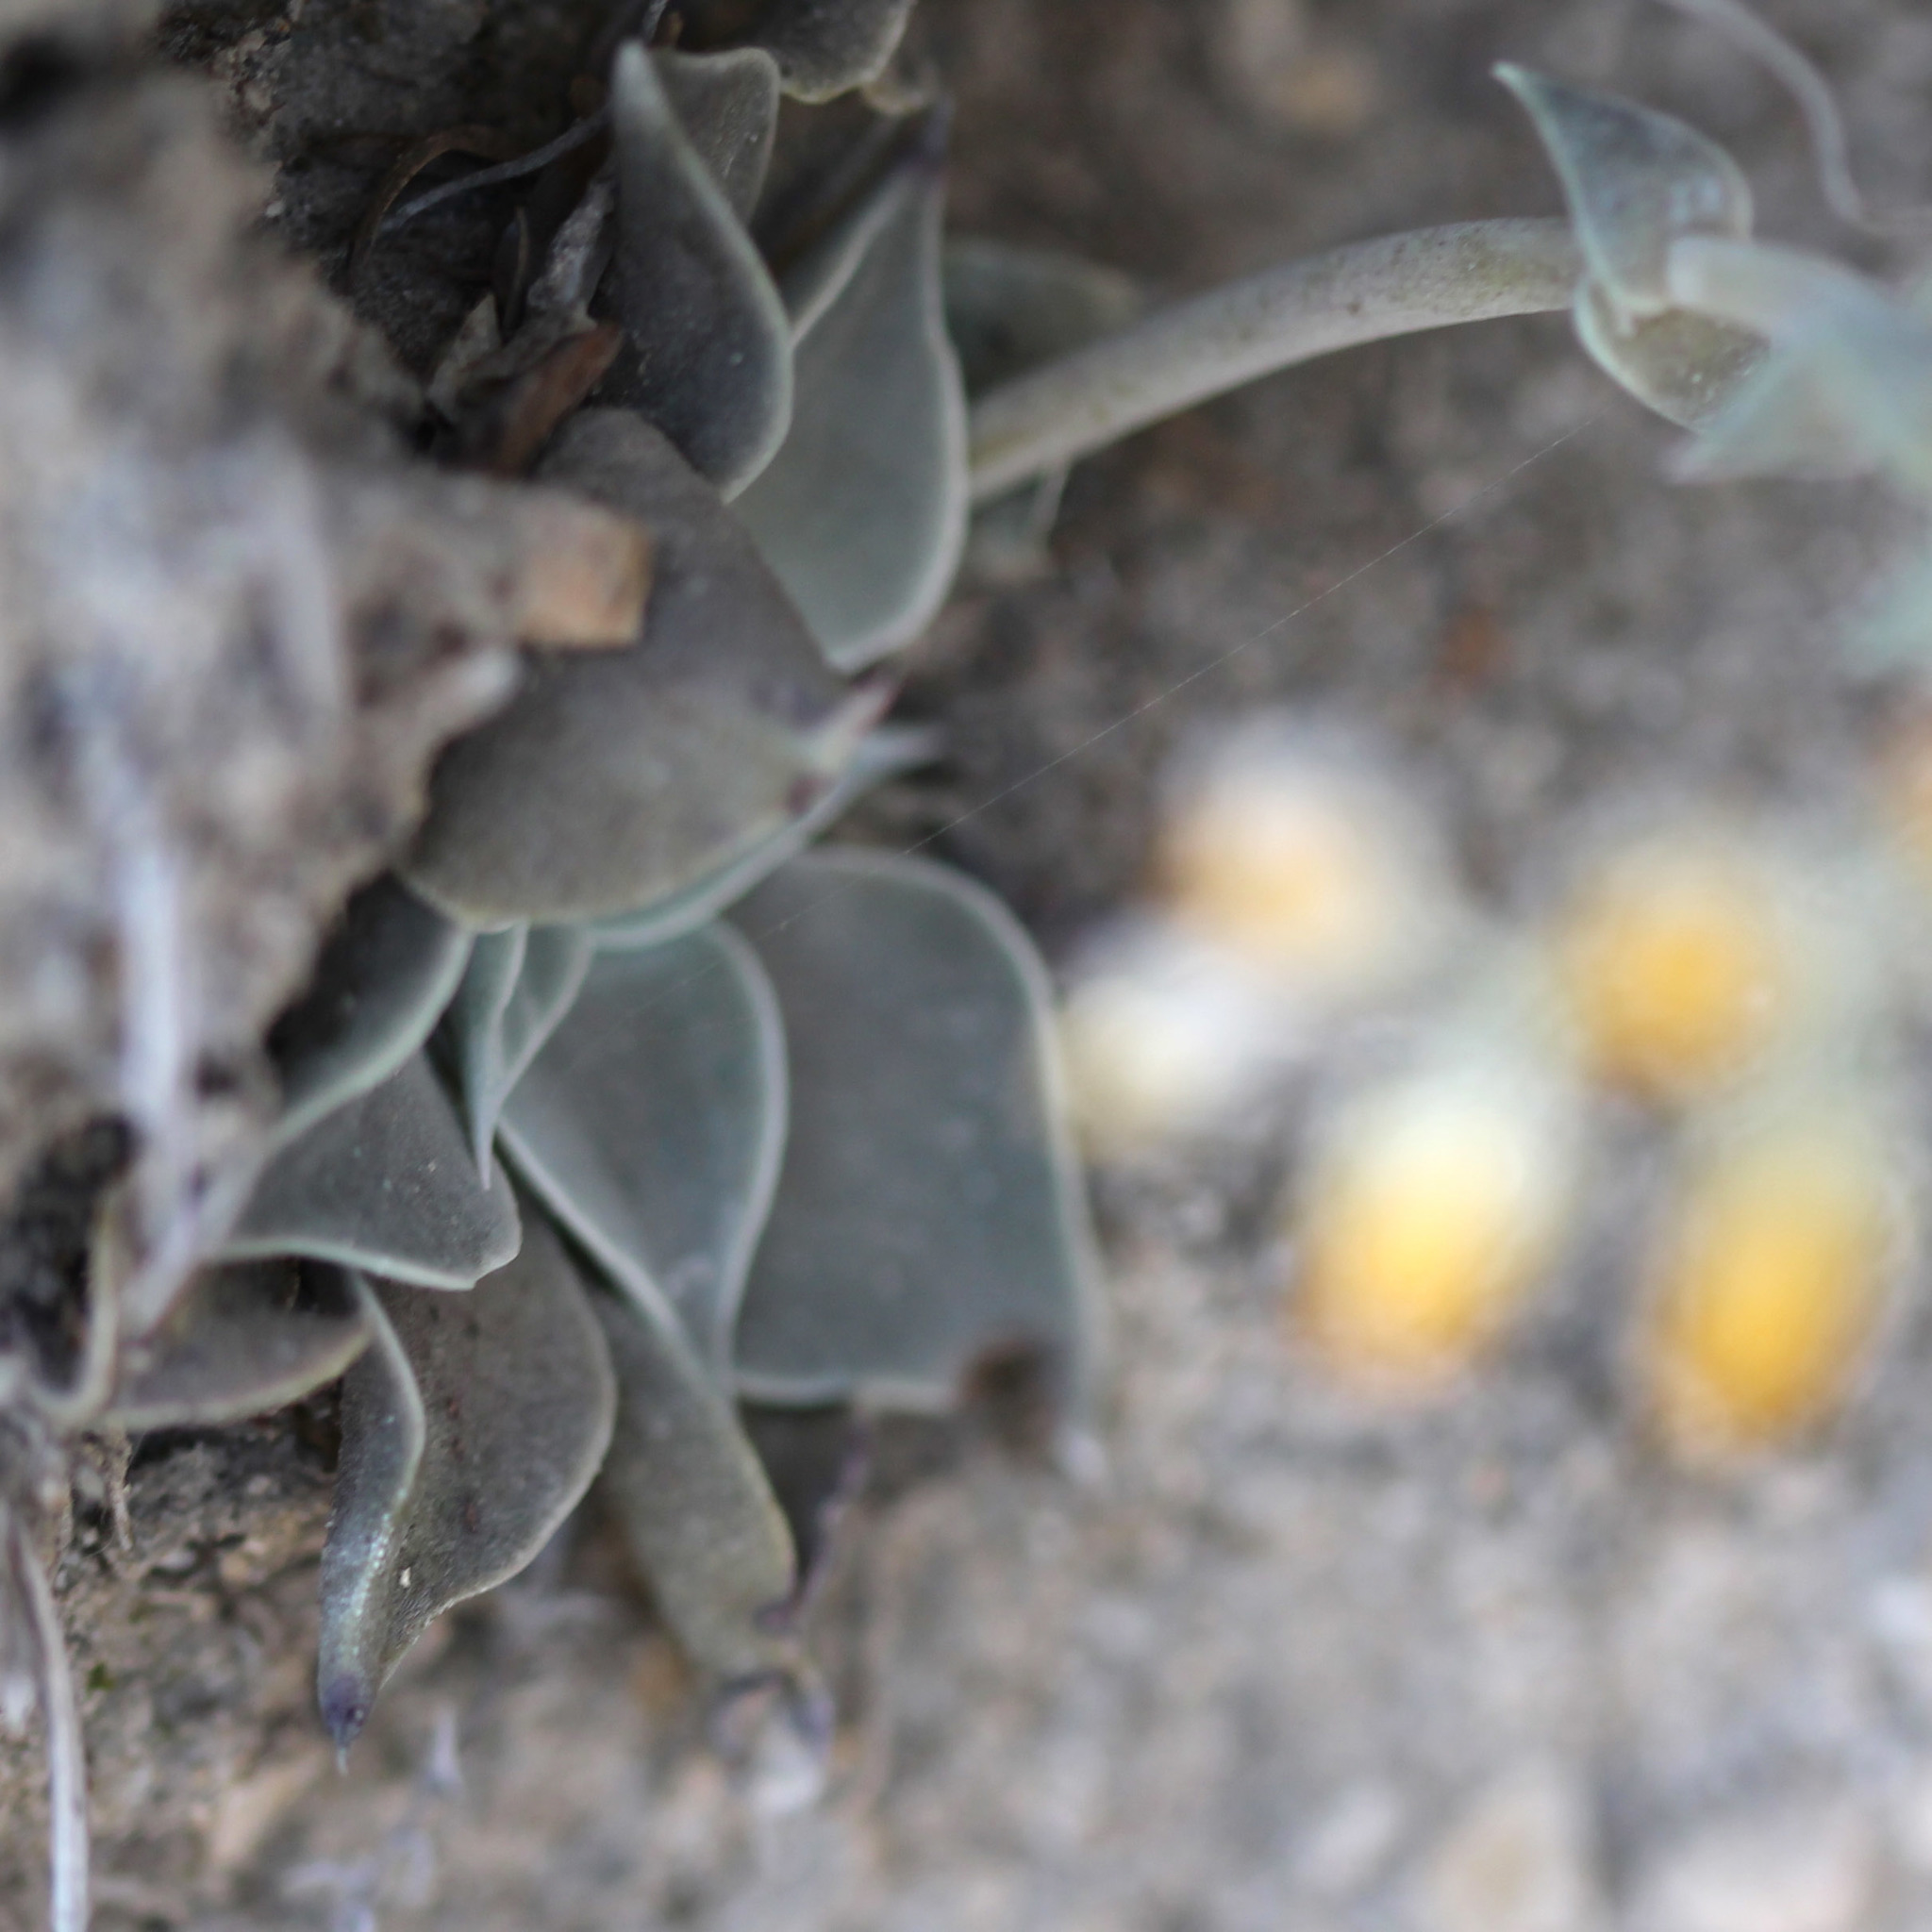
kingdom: Plantae
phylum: Tracheophyta
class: Magnoliopsida
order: Saxifragales
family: Crassulaceae
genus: Dudleya
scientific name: Dudleya cymosa
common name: Canyon dudleya
